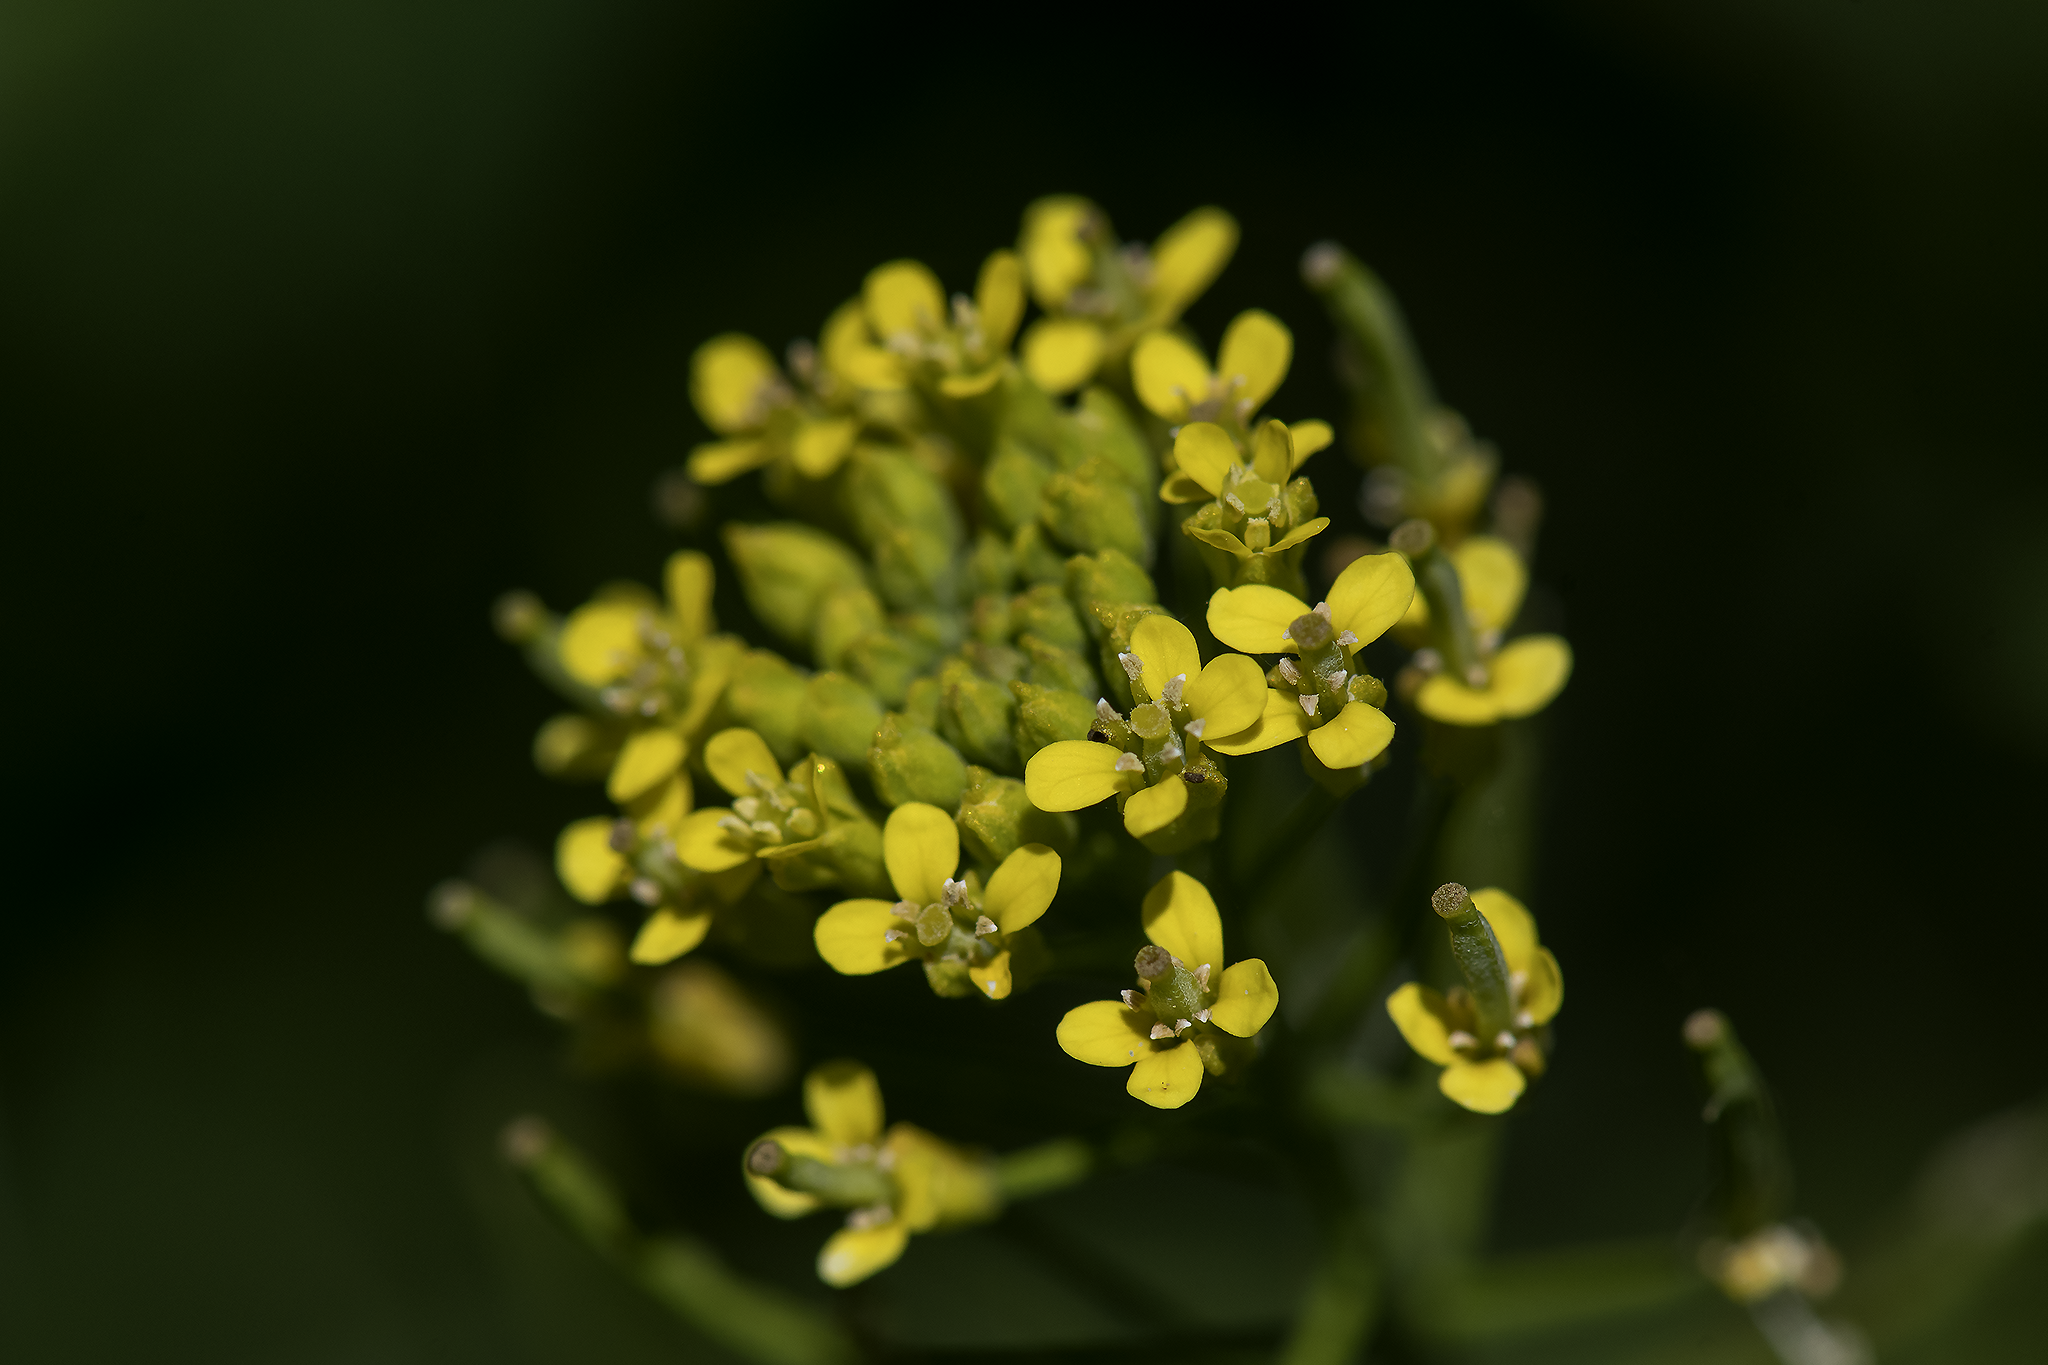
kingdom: Plantae
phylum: Tracheophyta
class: Magnoliopsida
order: Brassicales
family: Brassicaceae
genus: Erysimum
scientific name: Erysimum cheiranthoides
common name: Treacle mustard
